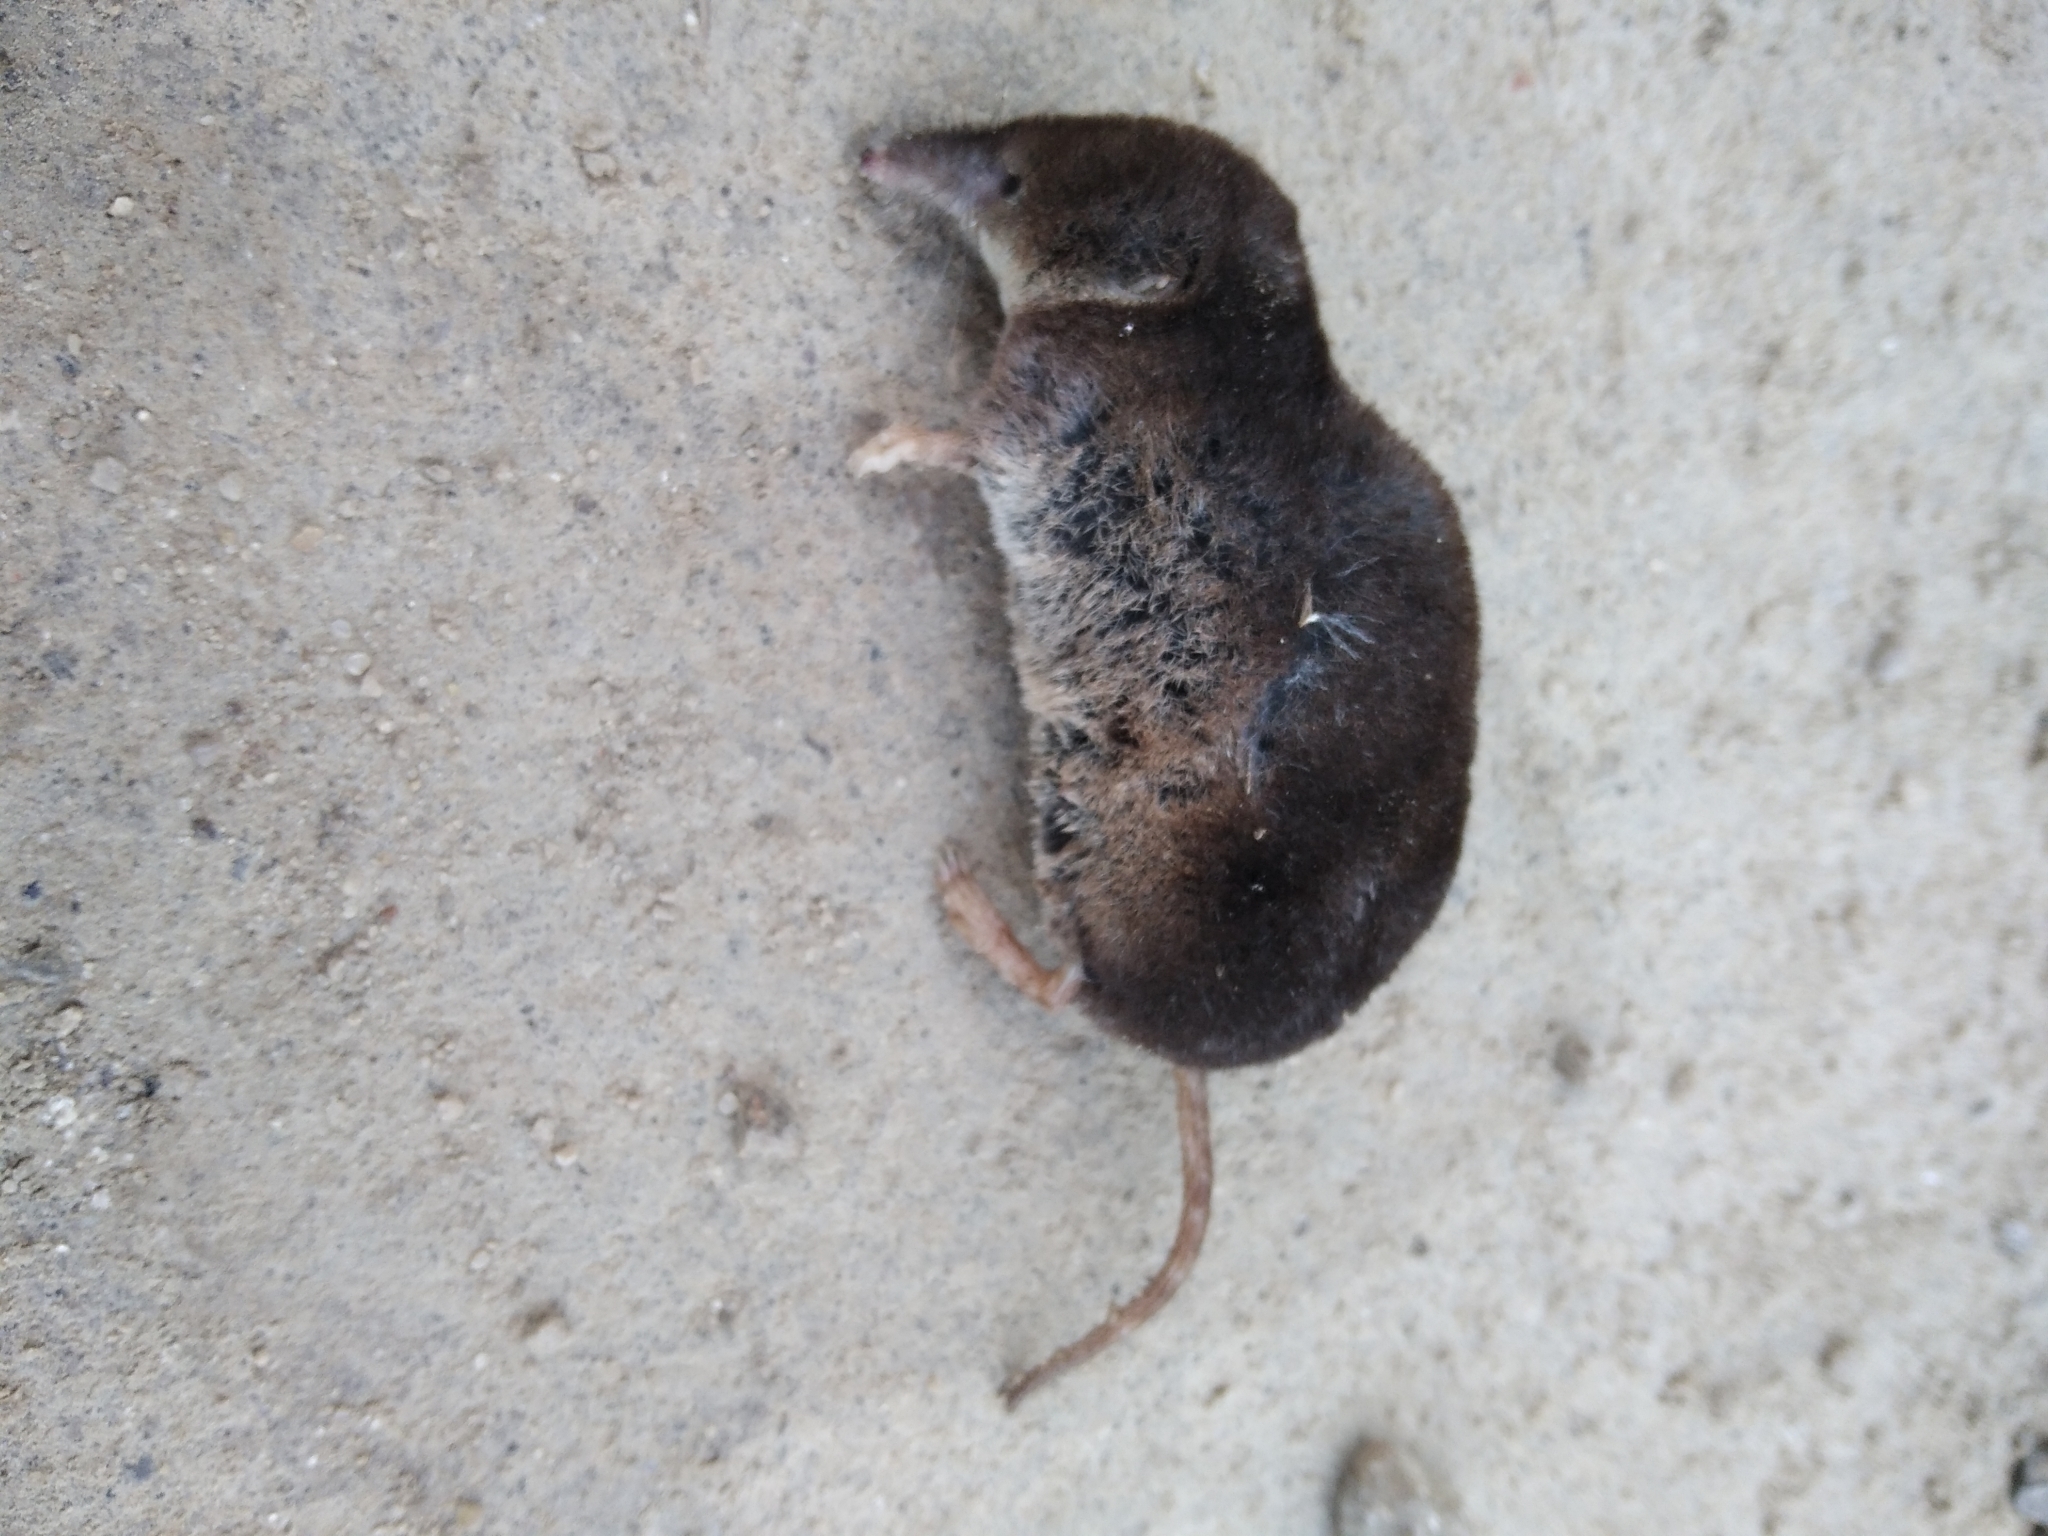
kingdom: Animalia
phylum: Chordata
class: Mammalia
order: Soricomorpha
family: Soricidae
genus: Sorex
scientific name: Sorex
